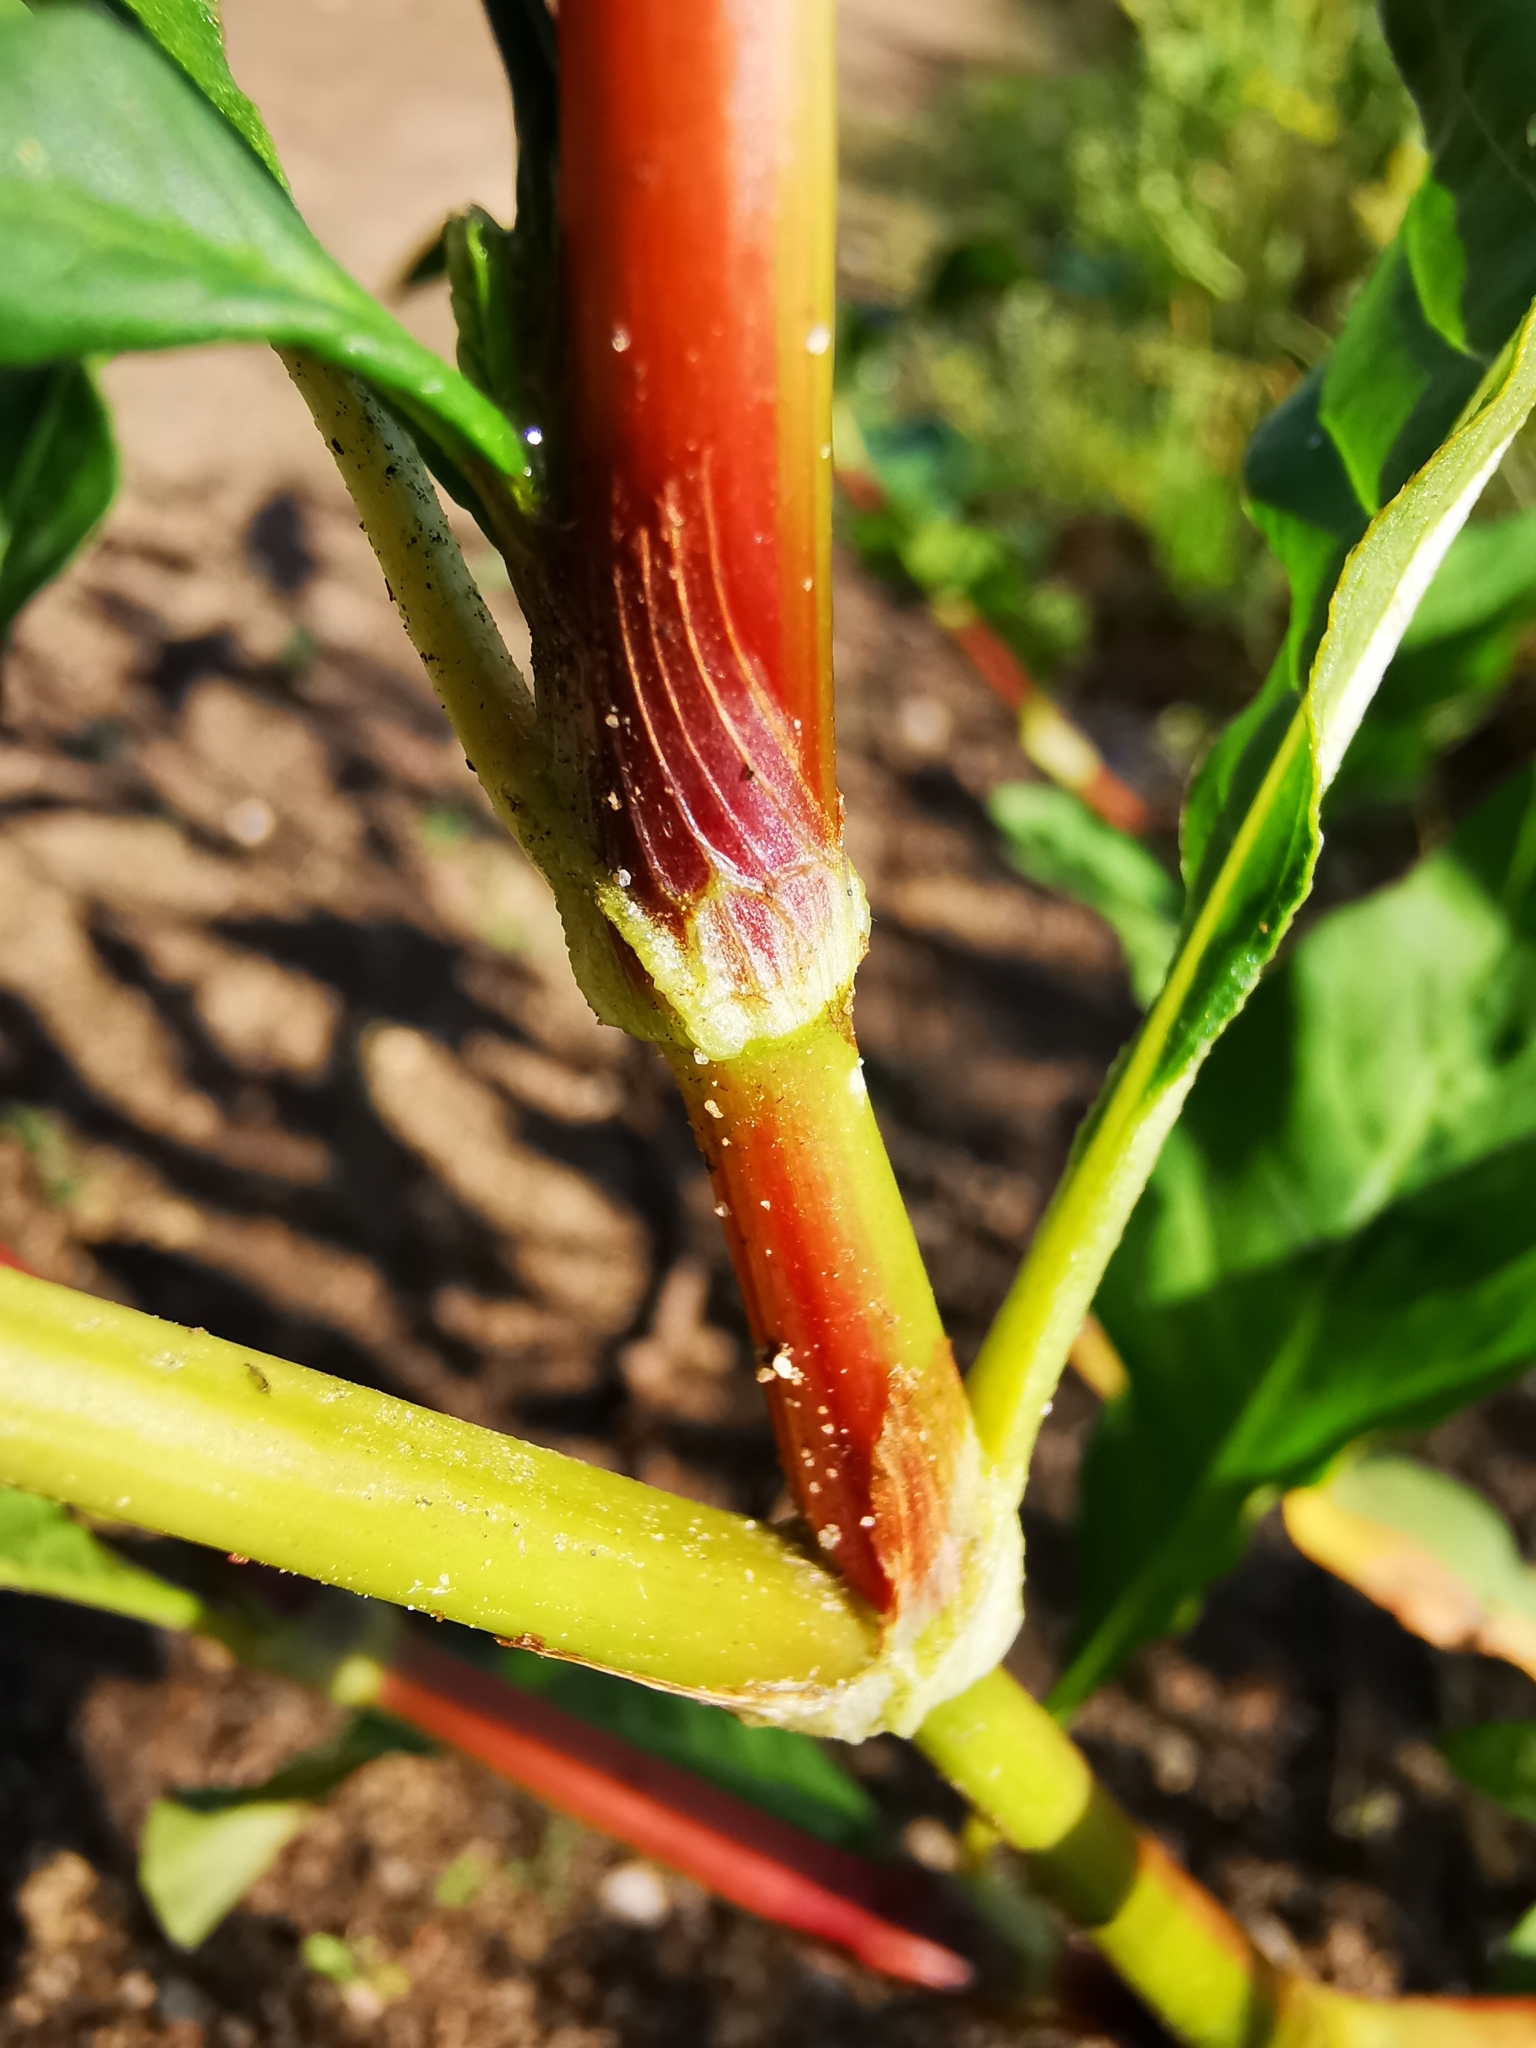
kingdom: Plantae
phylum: Tracheophyta
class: Magnoliopsida
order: Caryophyllales
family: Polygonaceae
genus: Persicaria
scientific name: Persicaria maculosa
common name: Redshank
